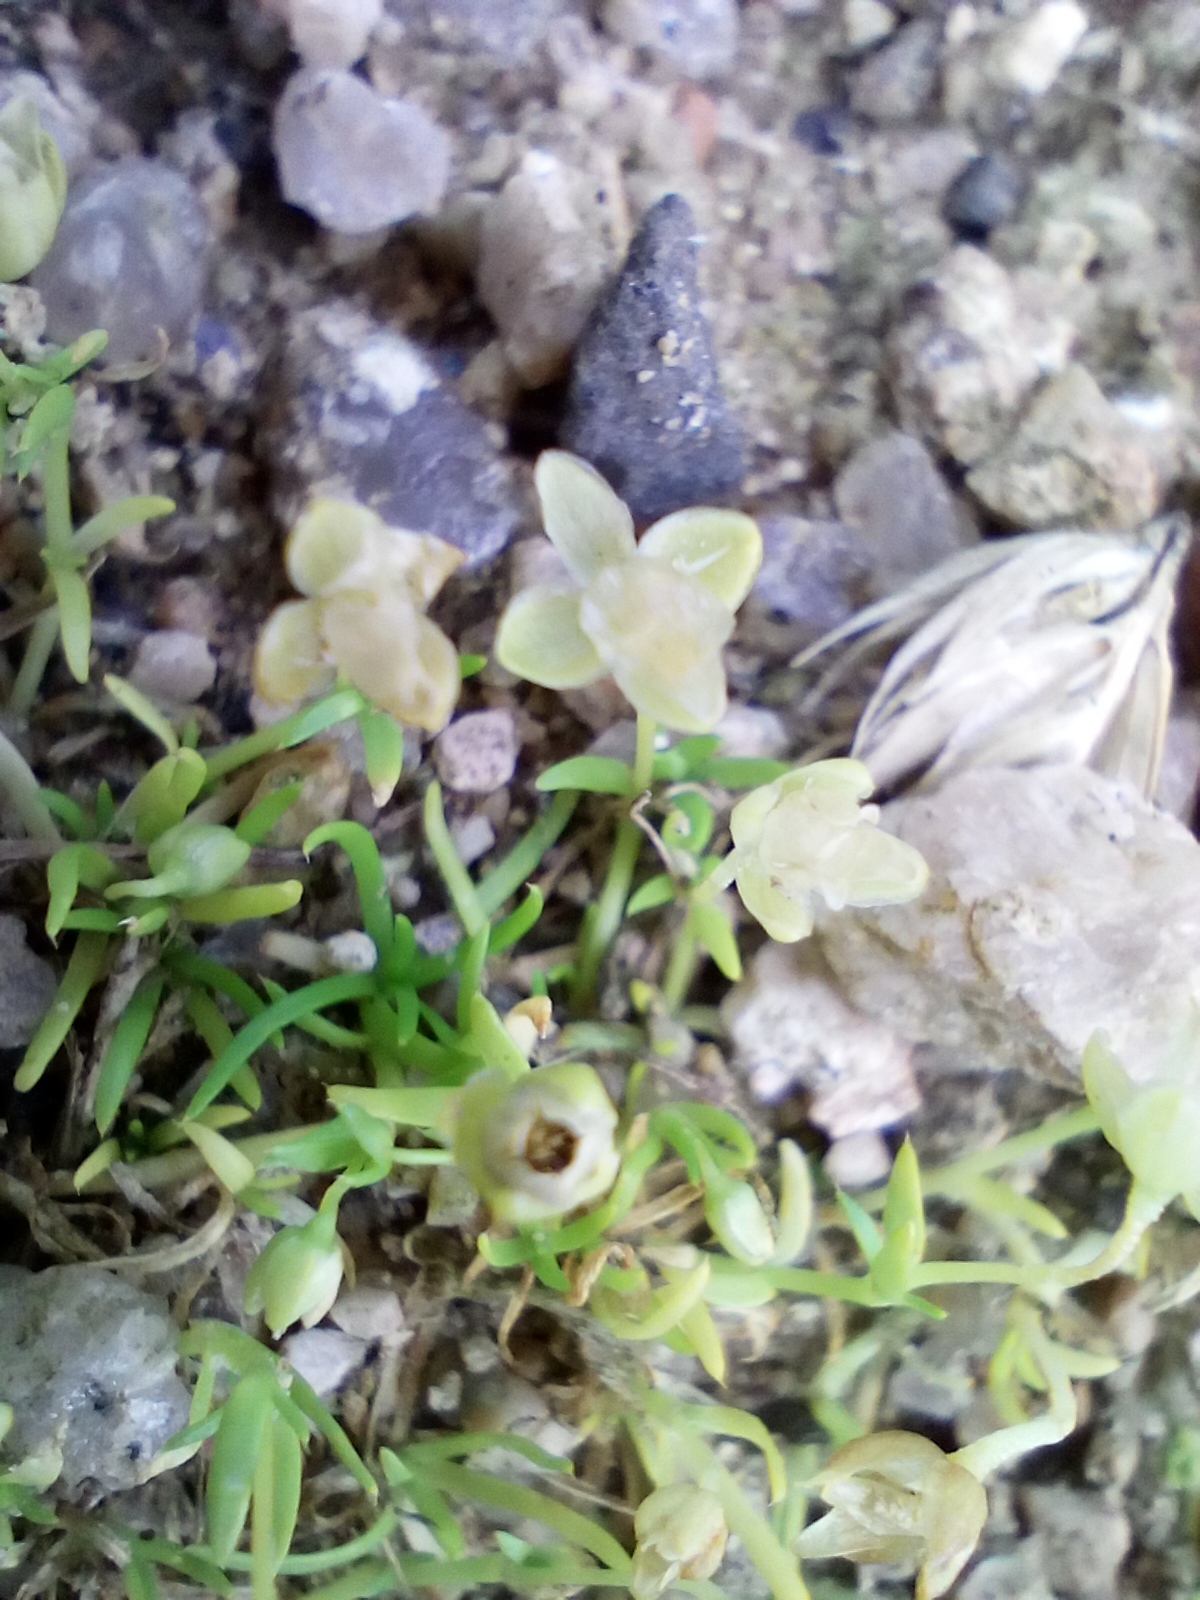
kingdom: Plantae
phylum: Tracheophyta
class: Magnoliopsida
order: Caryophyllales
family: Caryophyllaceae
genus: Sagina
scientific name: Sagina procumbens
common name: Procumbent pearlwort
